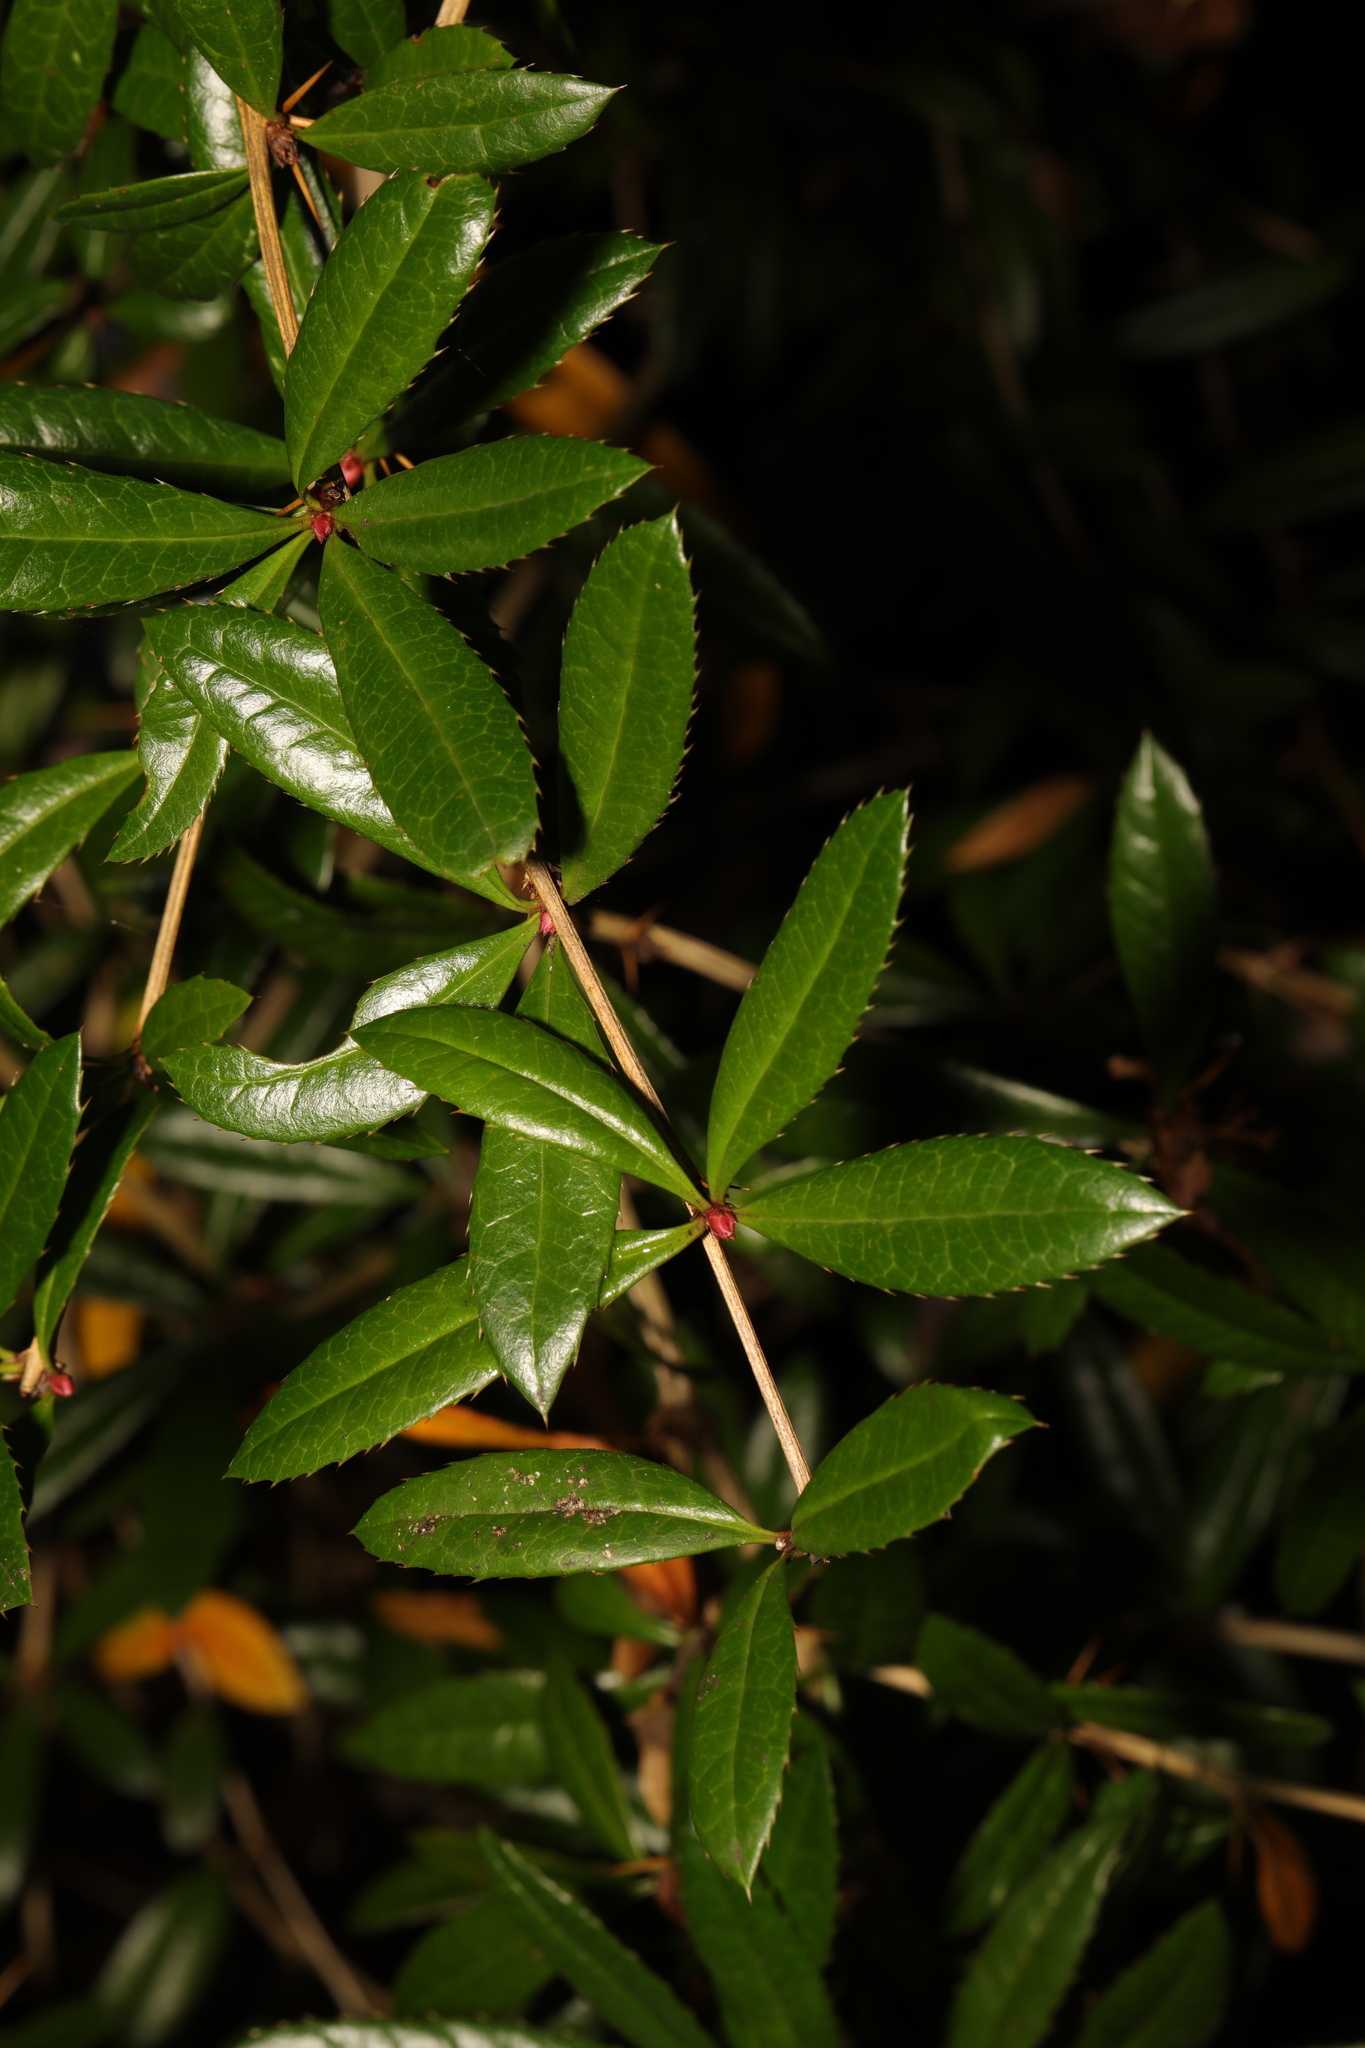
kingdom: Plantae
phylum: Tracheophyta
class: Magnoliopsida
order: Ranunculales
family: Berberidaceae
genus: Berberis
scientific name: Berberis julianae
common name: Wintergreen barberry
